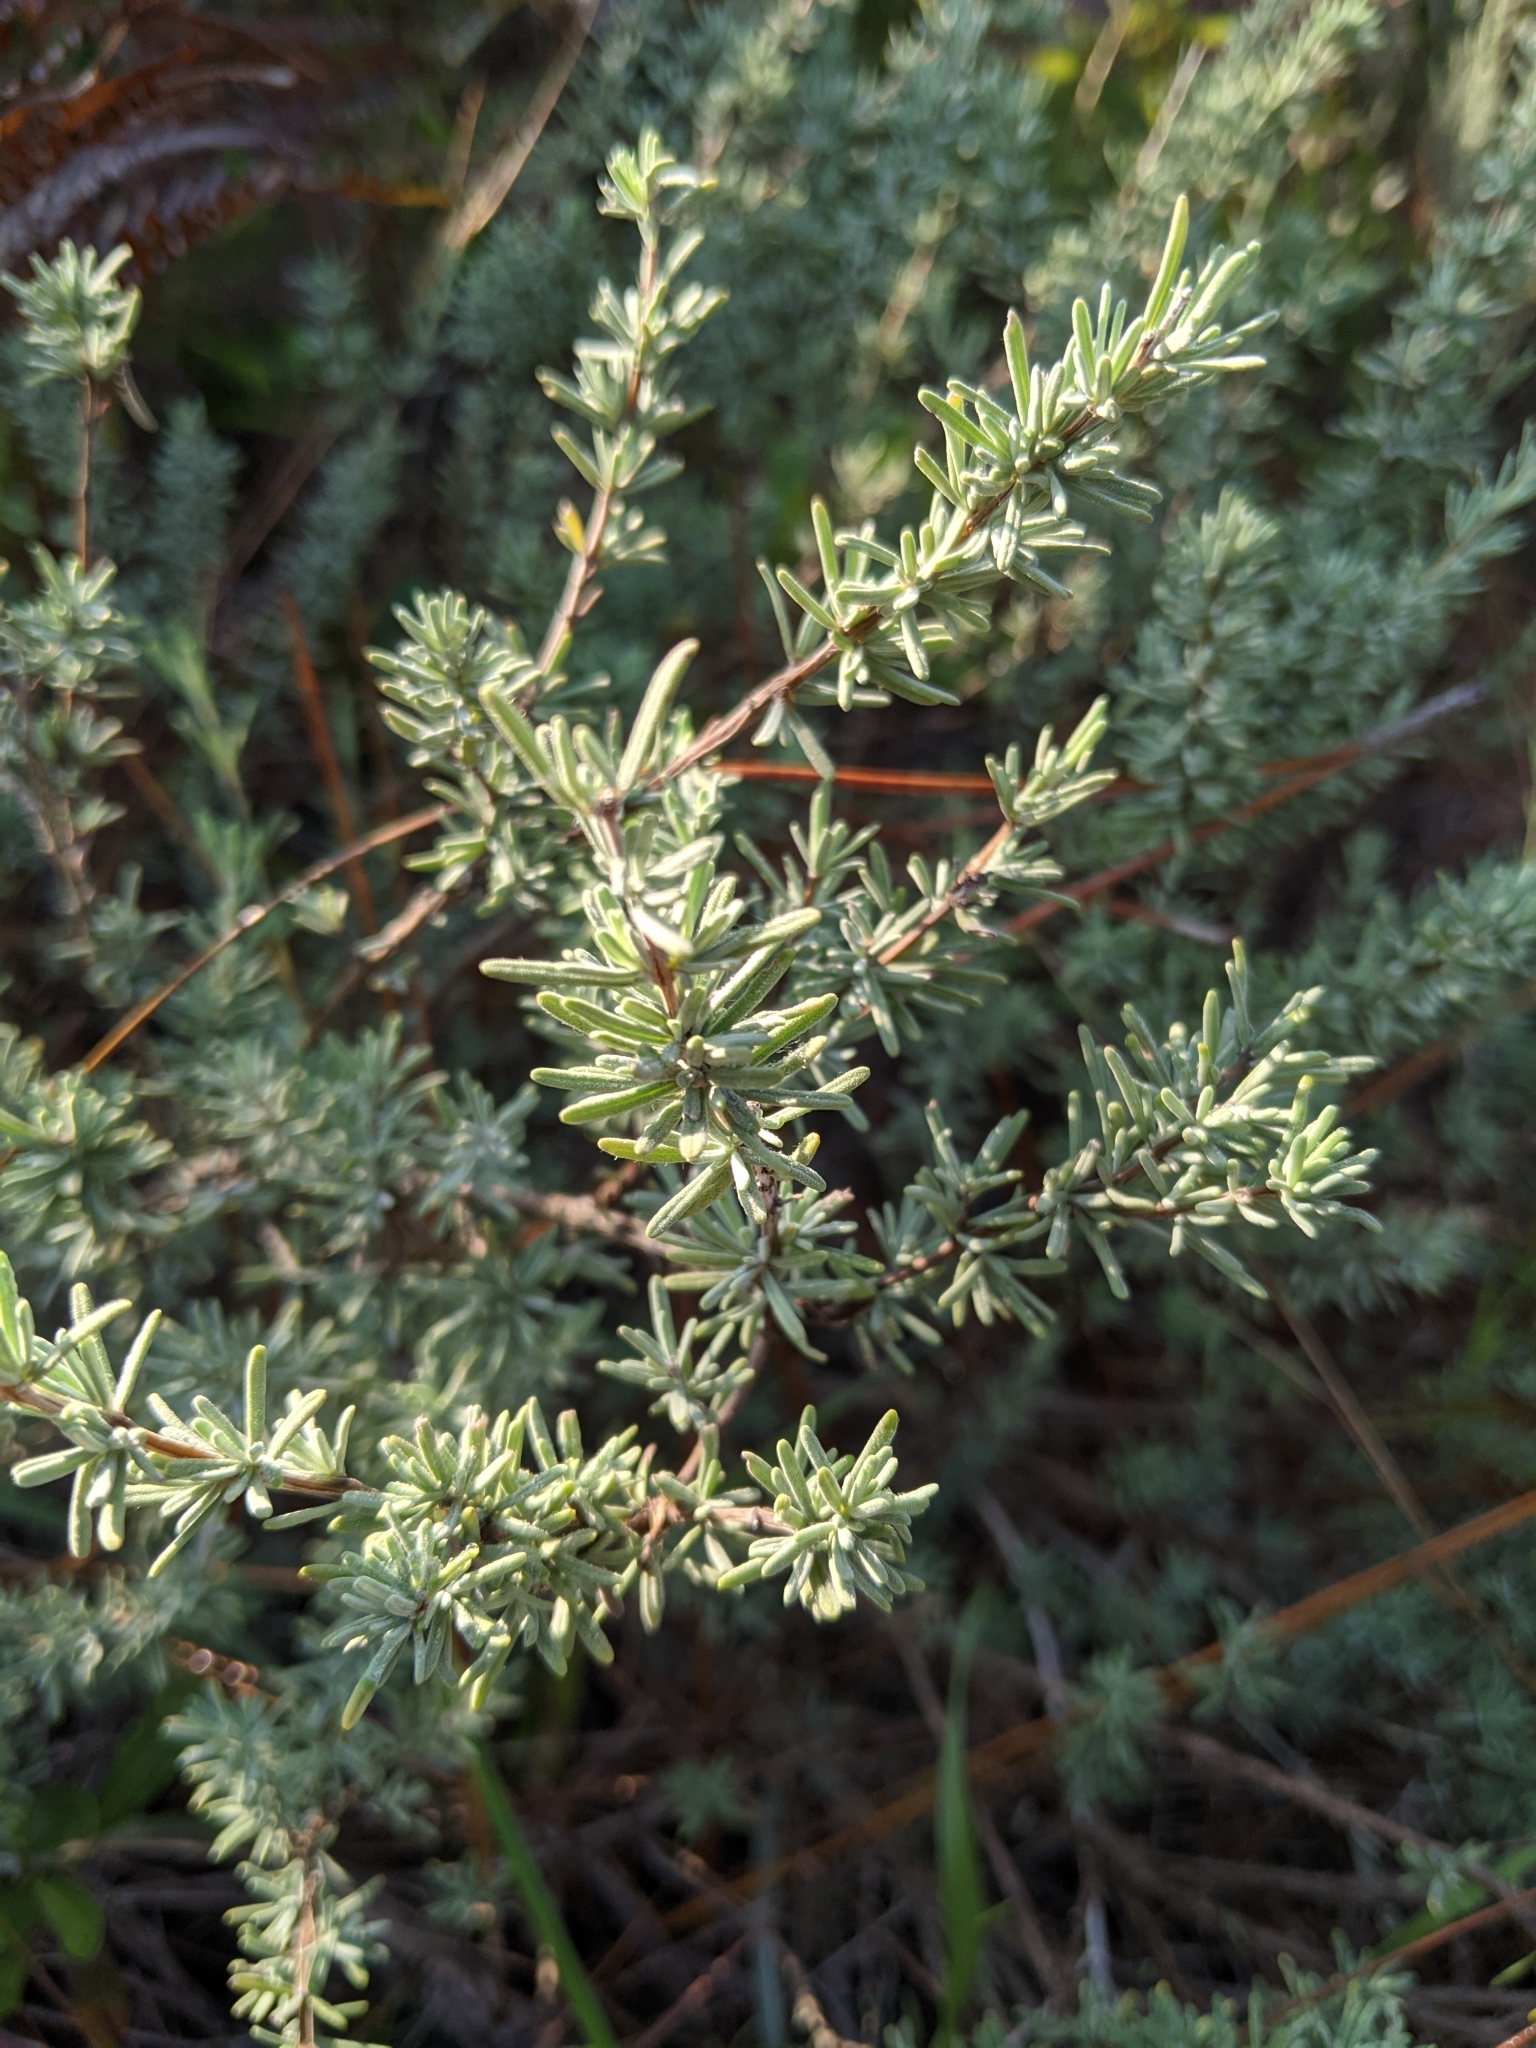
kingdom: Plantae
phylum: Tracheophyta
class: Magnoliopsida
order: Lamiales
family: Lamiaceae
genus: Conradina
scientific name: Conradina canescens
